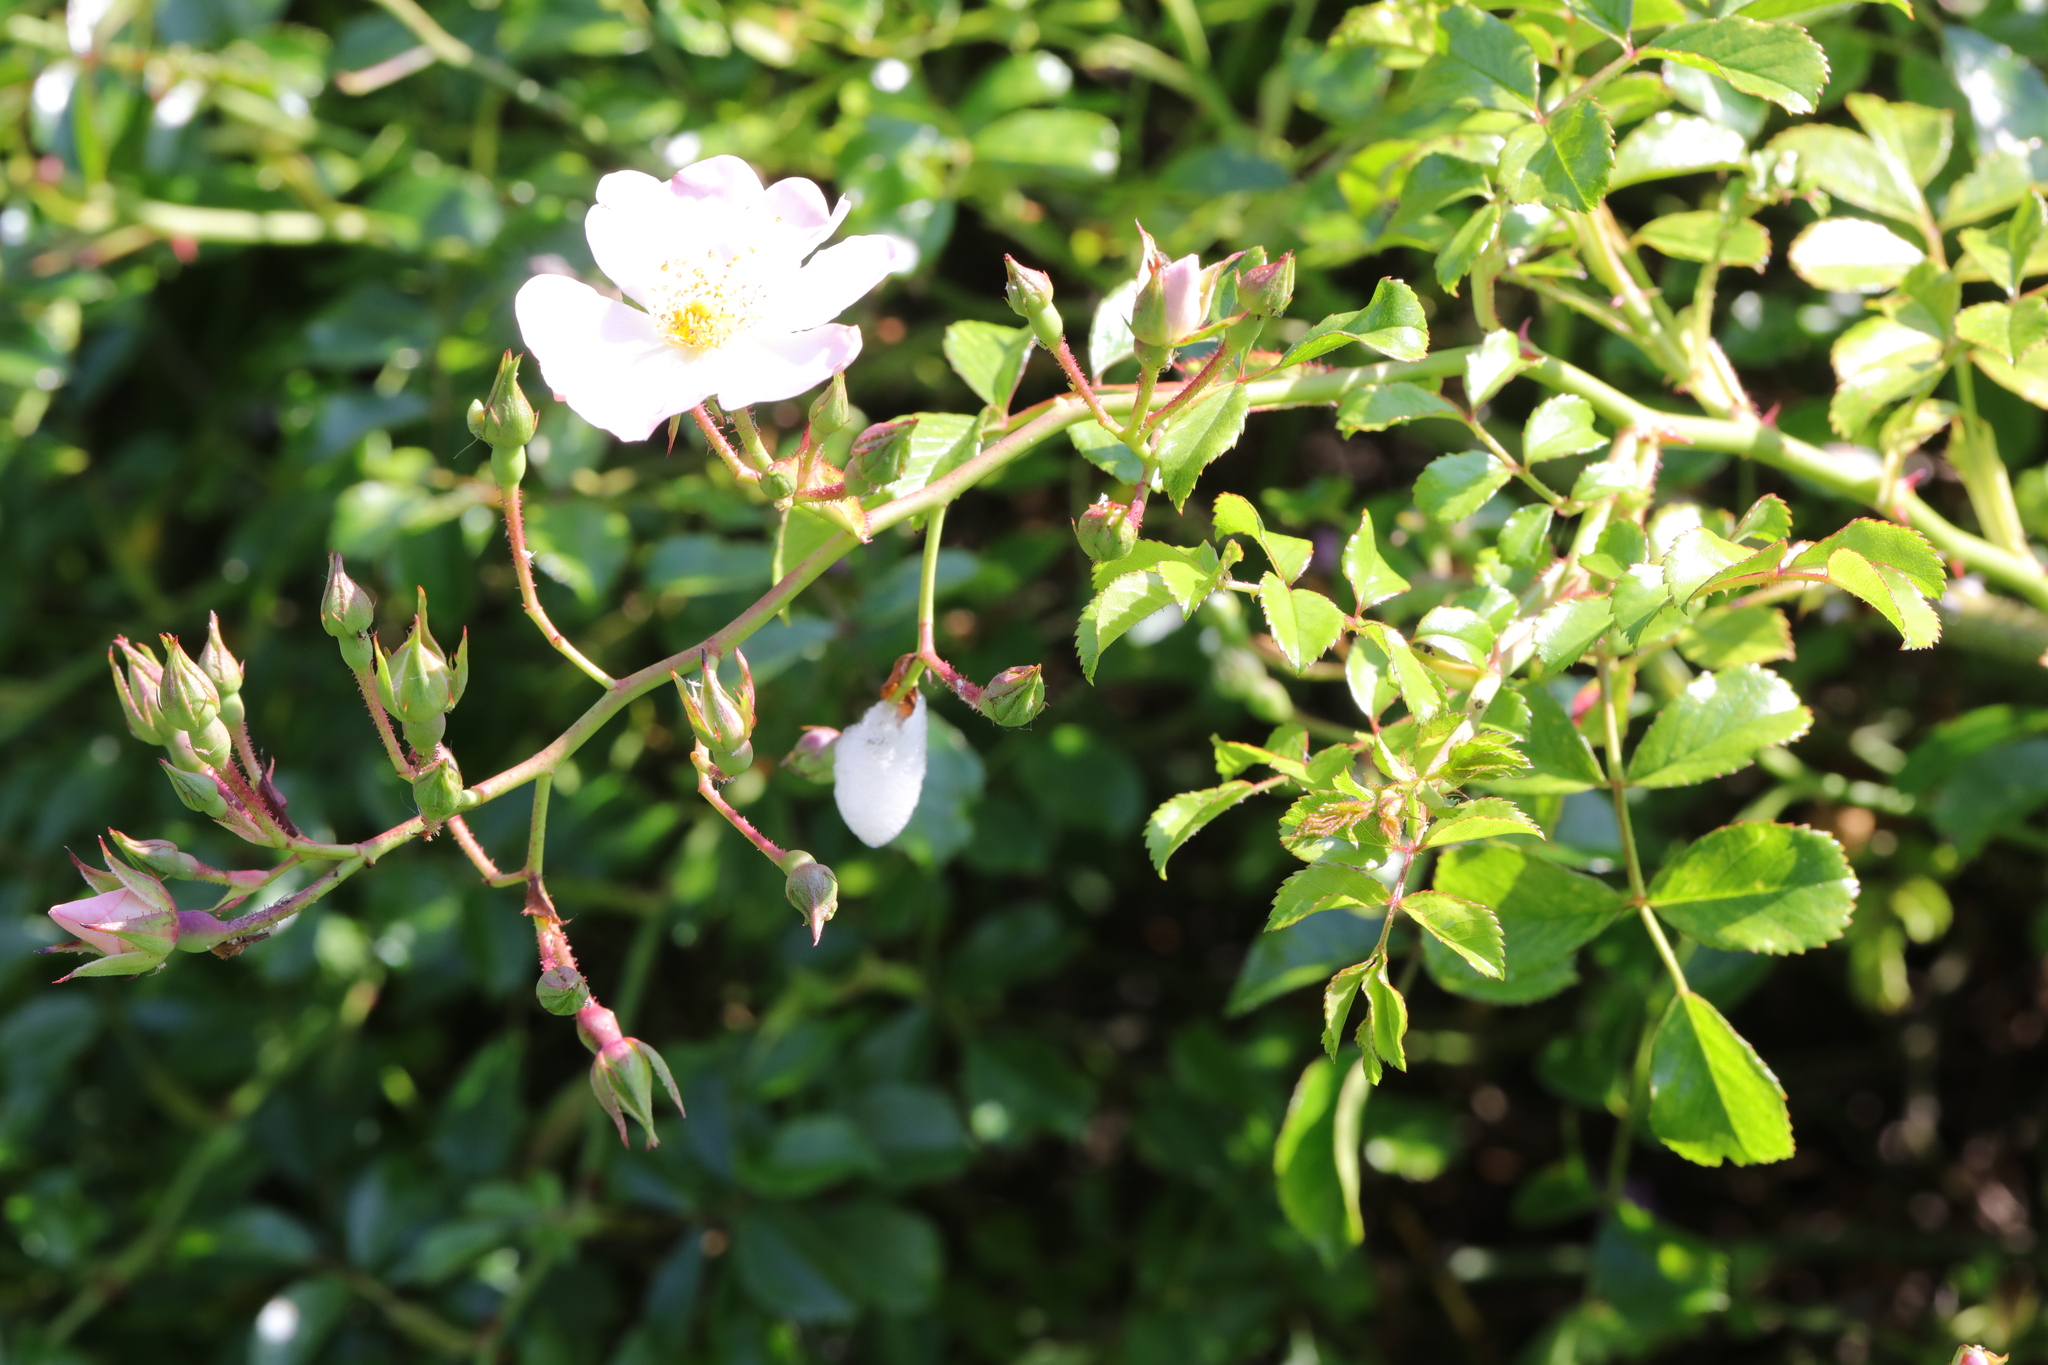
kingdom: Plantae
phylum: Tracheophyta
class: Magnoliopsida
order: Rosales
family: Rosaceae
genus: Rosa
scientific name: Rosa multiflora
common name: Multiflora rose
